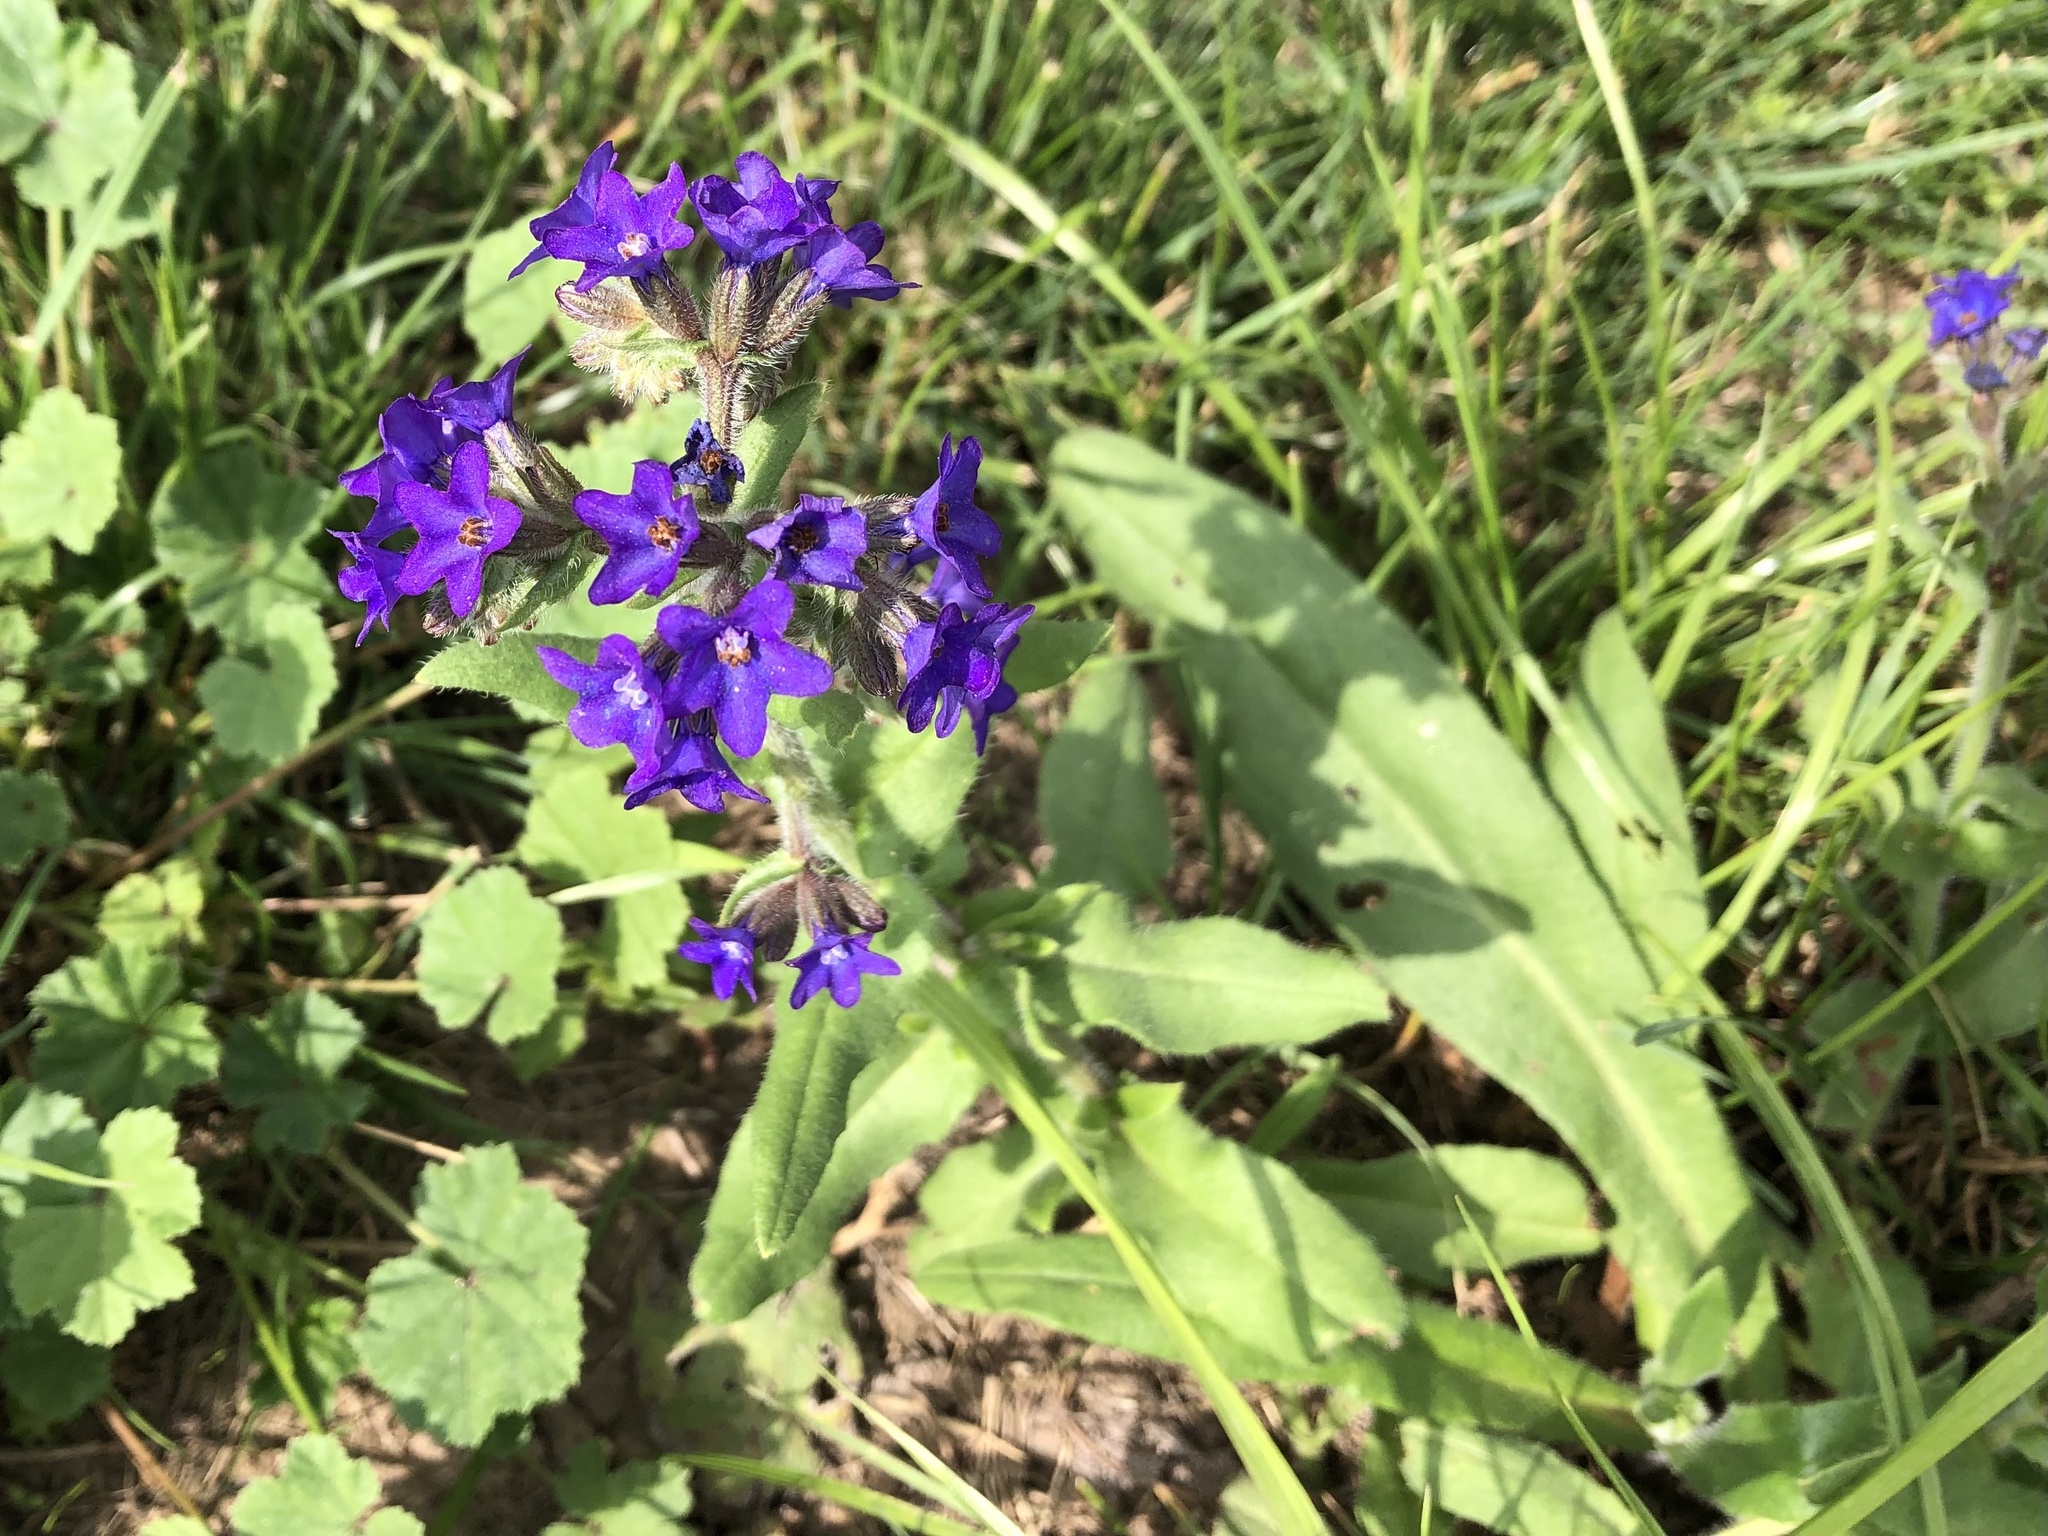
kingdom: Plantae
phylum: Tracheophyta
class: Magnoliopsida
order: Boraginales
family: Boraginaceae
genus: Anchusa
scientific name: Anchusa officinalis
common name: Alkanet
